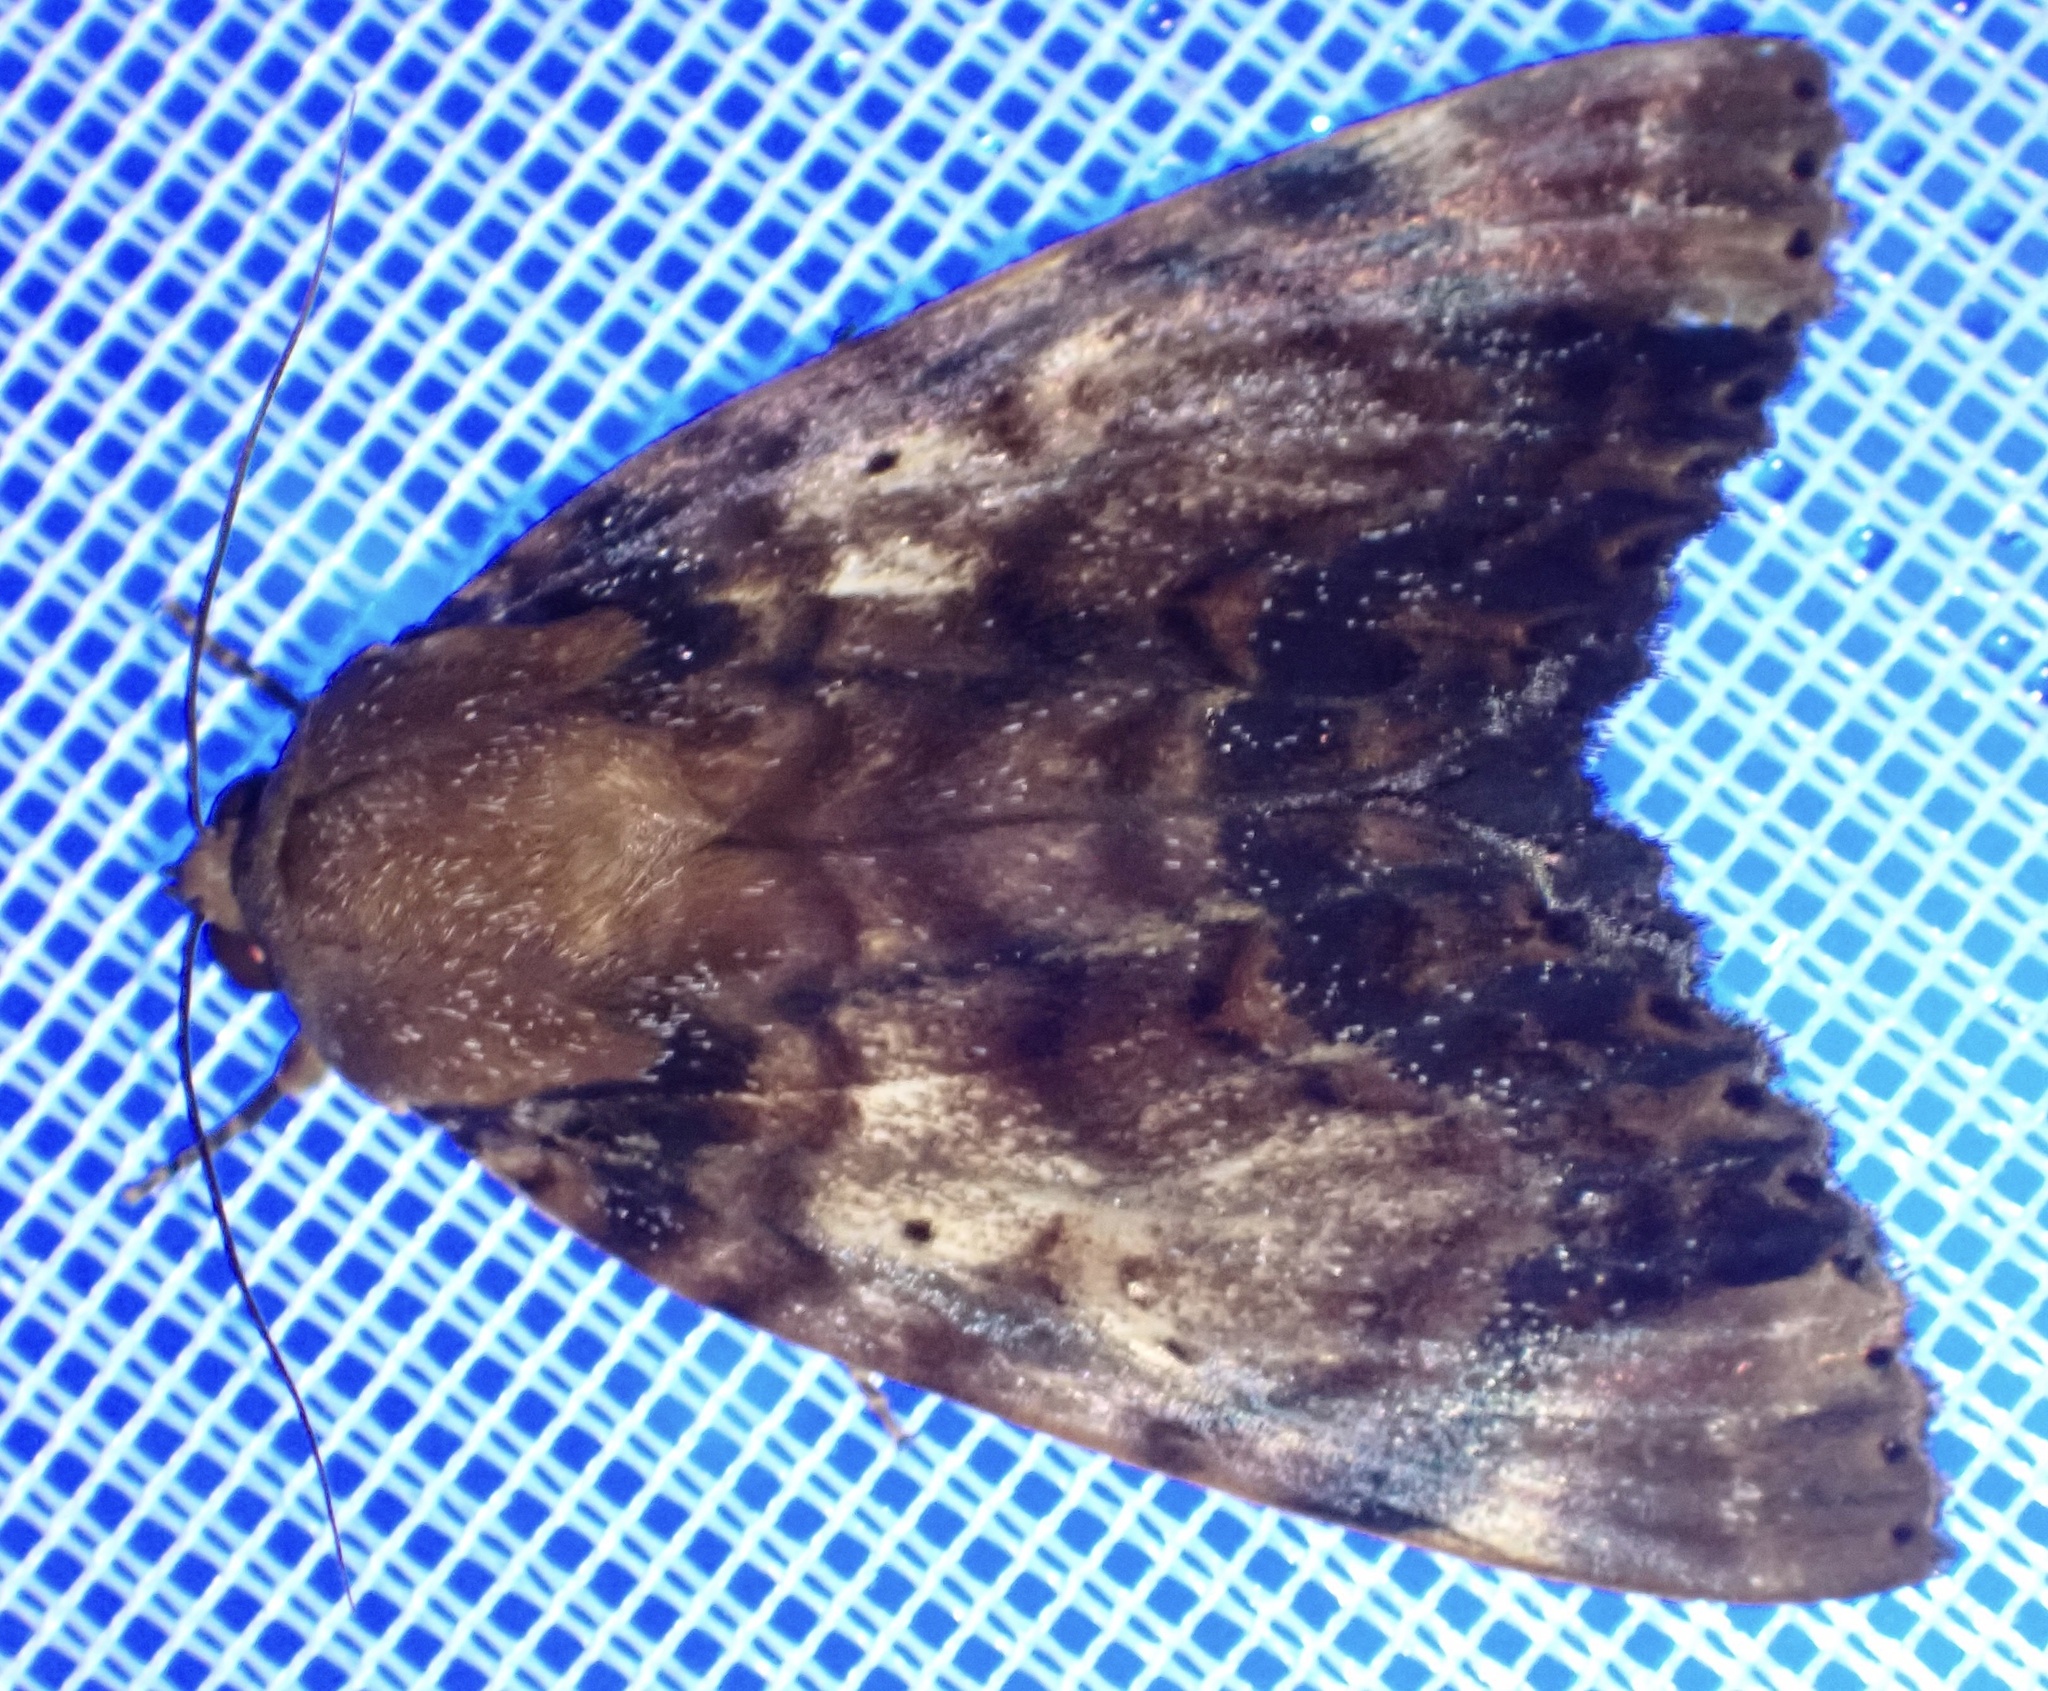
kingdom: Animalia
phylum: Arthropoda
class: Insecta
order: Lepidoptera
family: Erebidae
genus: Arcte
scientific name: Arcte coerula
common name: Ramie moth
